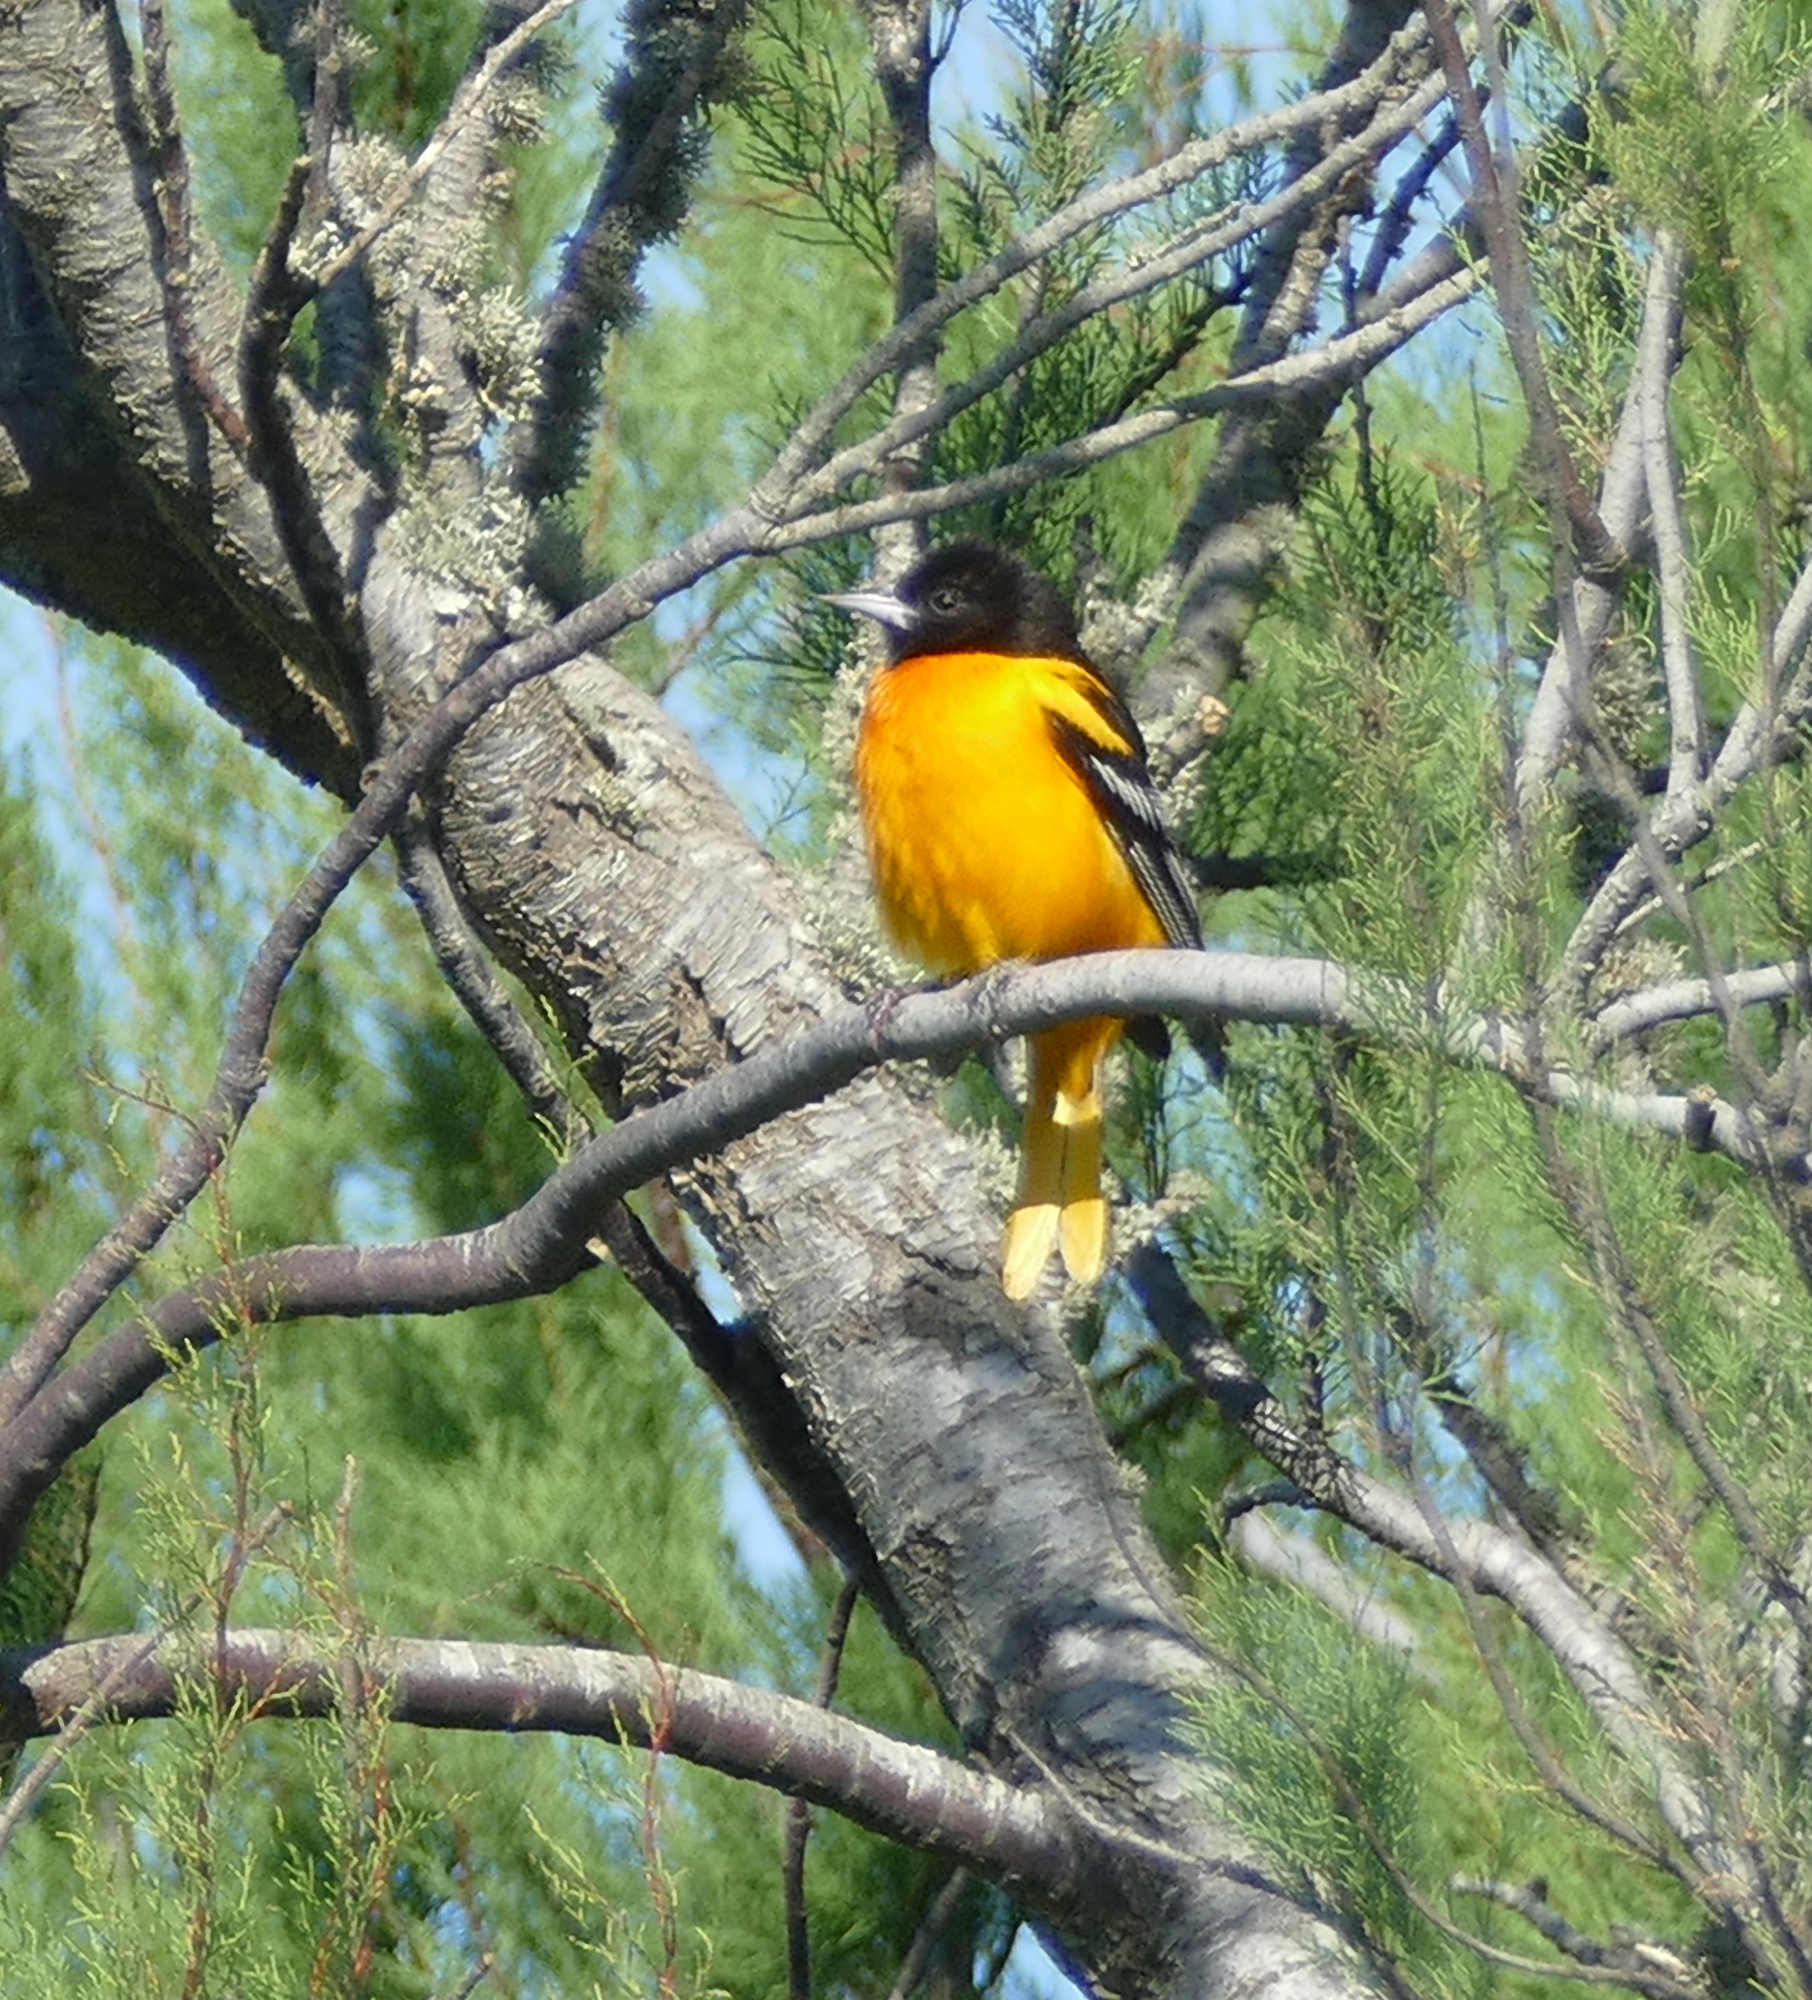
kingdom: Animalia
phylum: Chordata
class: Aves
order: Passeriformes
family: Icteridae
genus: Icterus
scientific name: Icterus galbula
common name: Baltimore oriole
